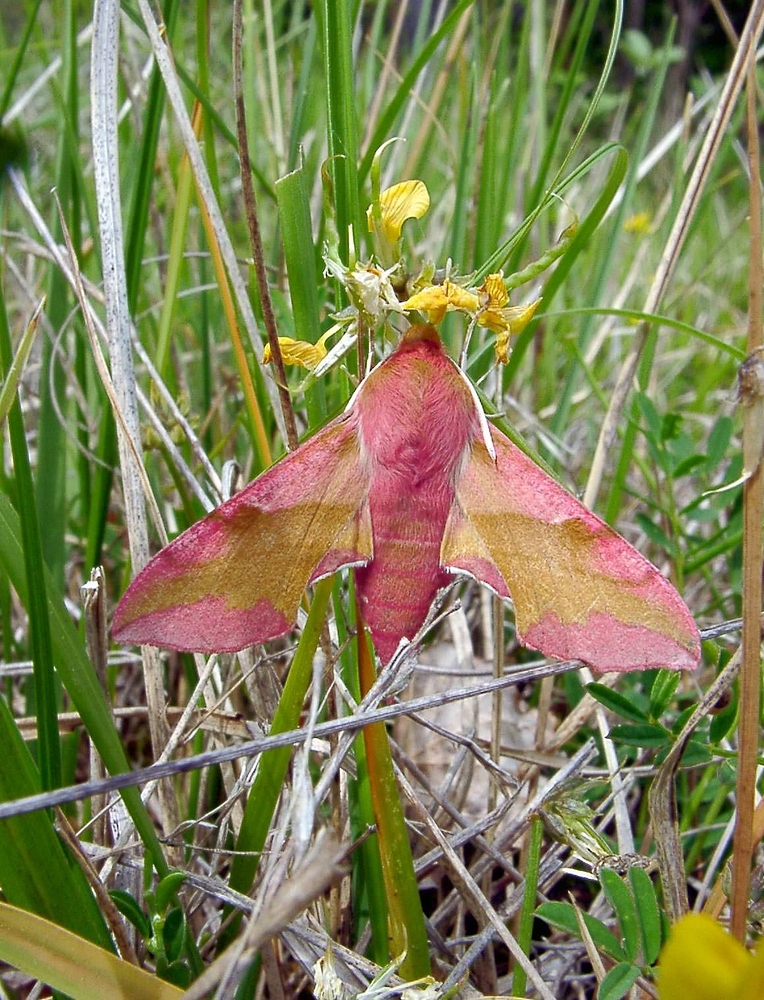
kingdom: Animalia
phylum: Arthropoda
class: Insecta
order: Lepidoptera
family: Sphingidae
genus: Deilephila
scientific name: Deilephila porcellus
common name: Small elephant hawk-moth
